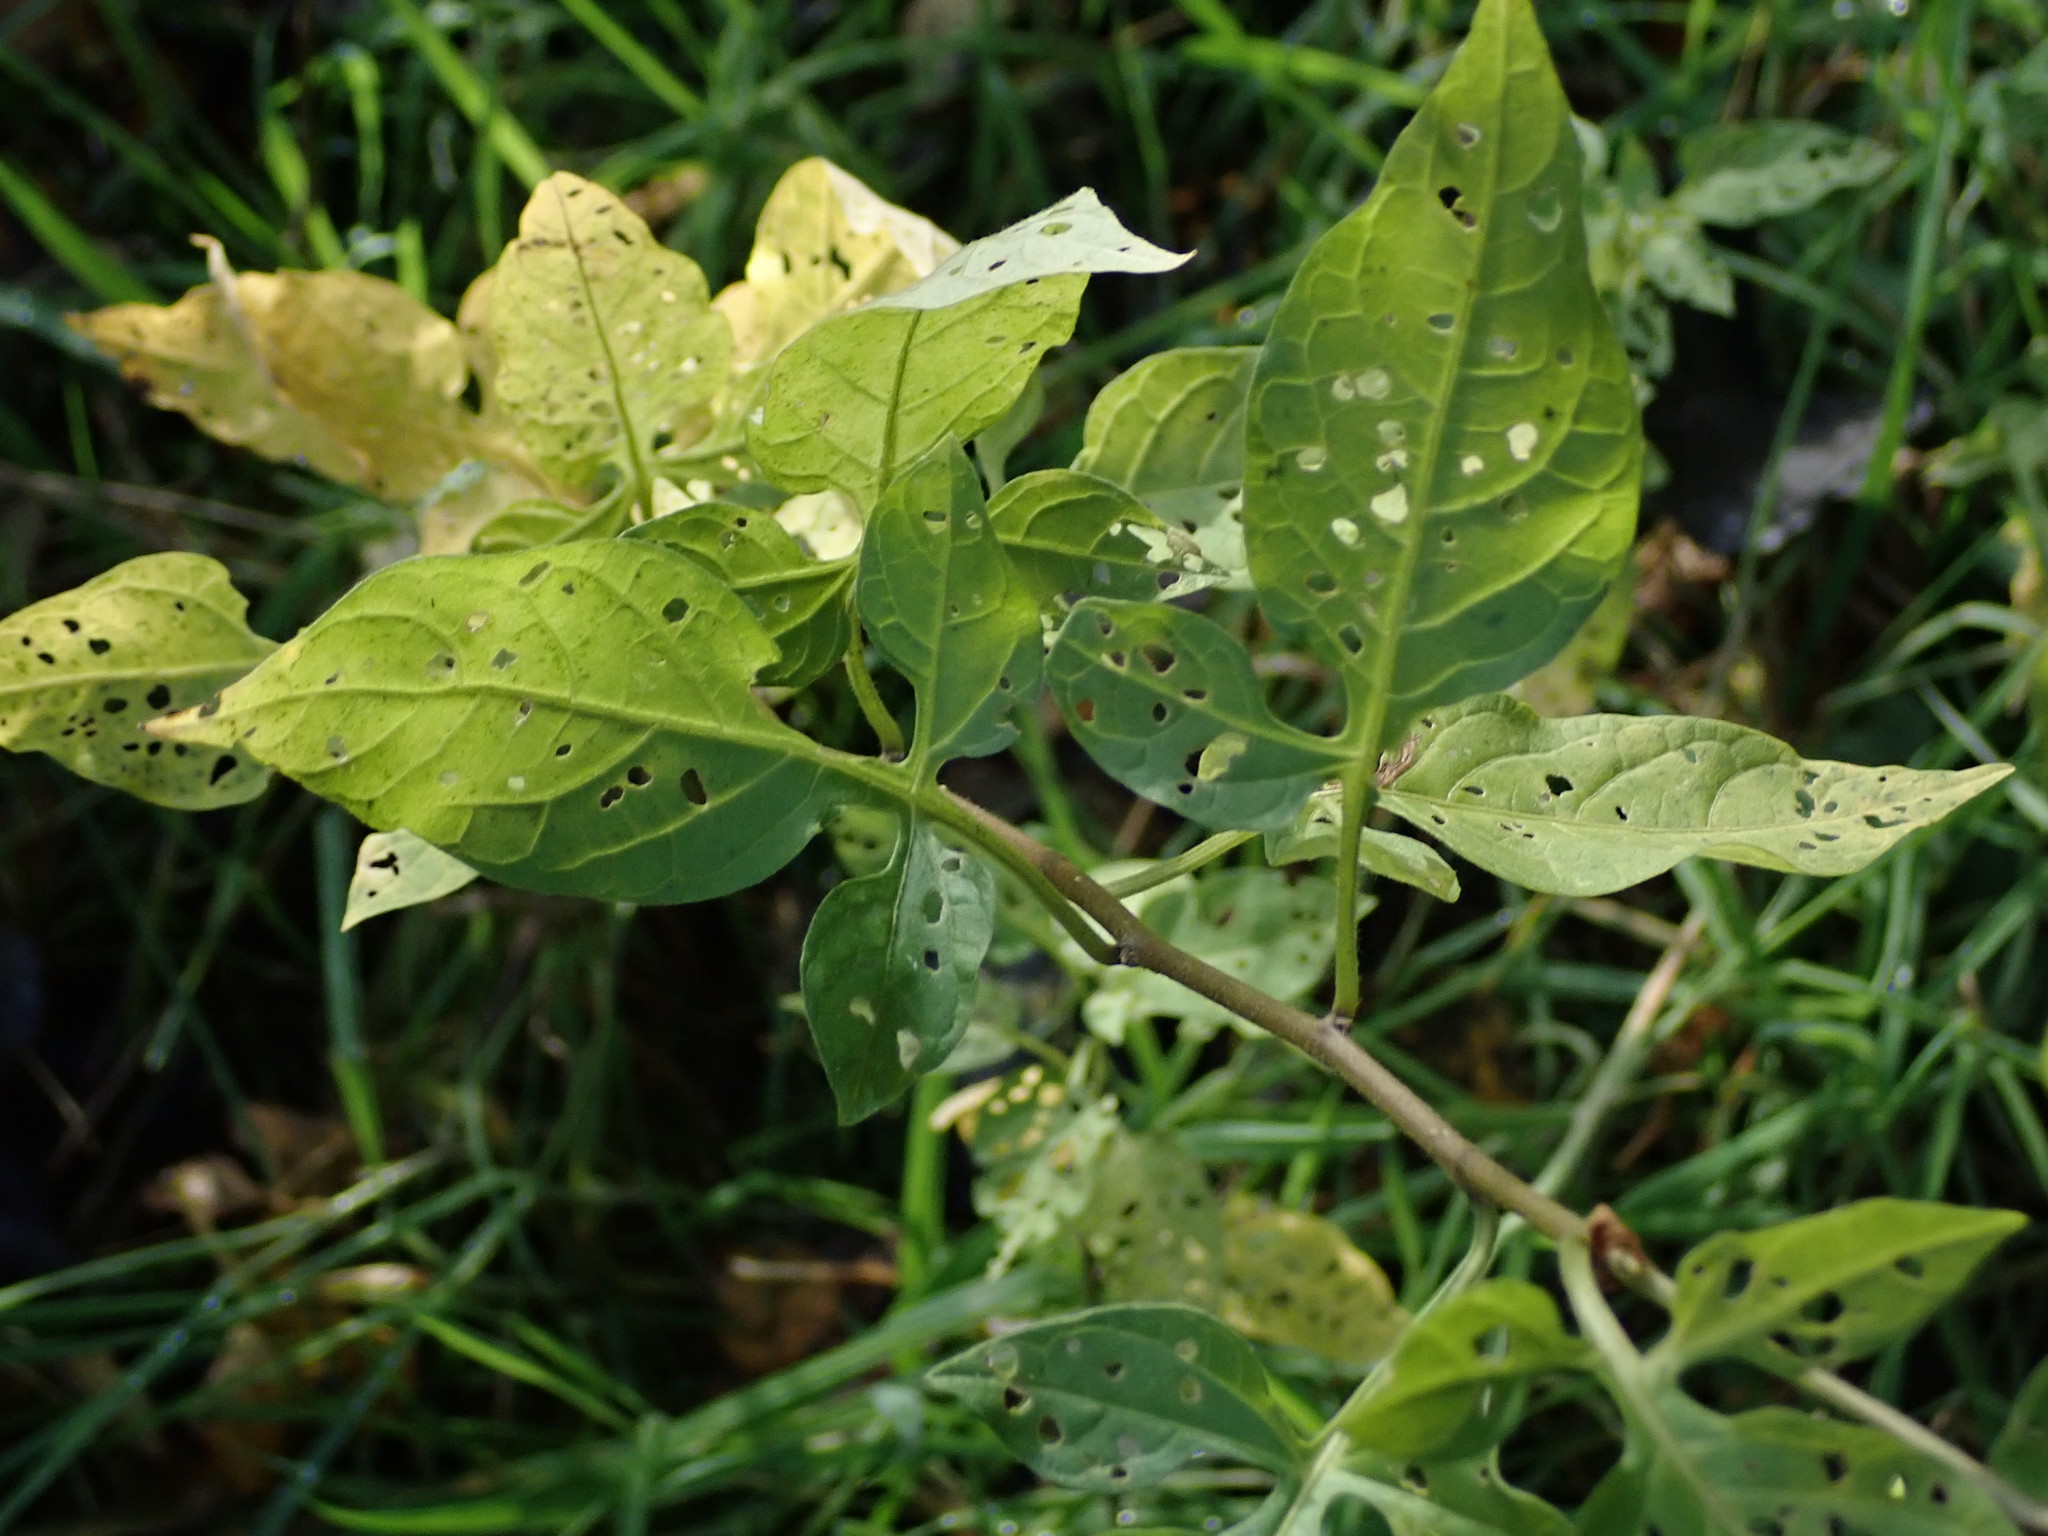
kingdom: Plantae
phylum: Tracheophyta
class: Magnoliopsida
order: Solanales
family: Solanaceae
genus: Solanum
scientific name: Solanum dulcamara
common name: Climbing nightshade
